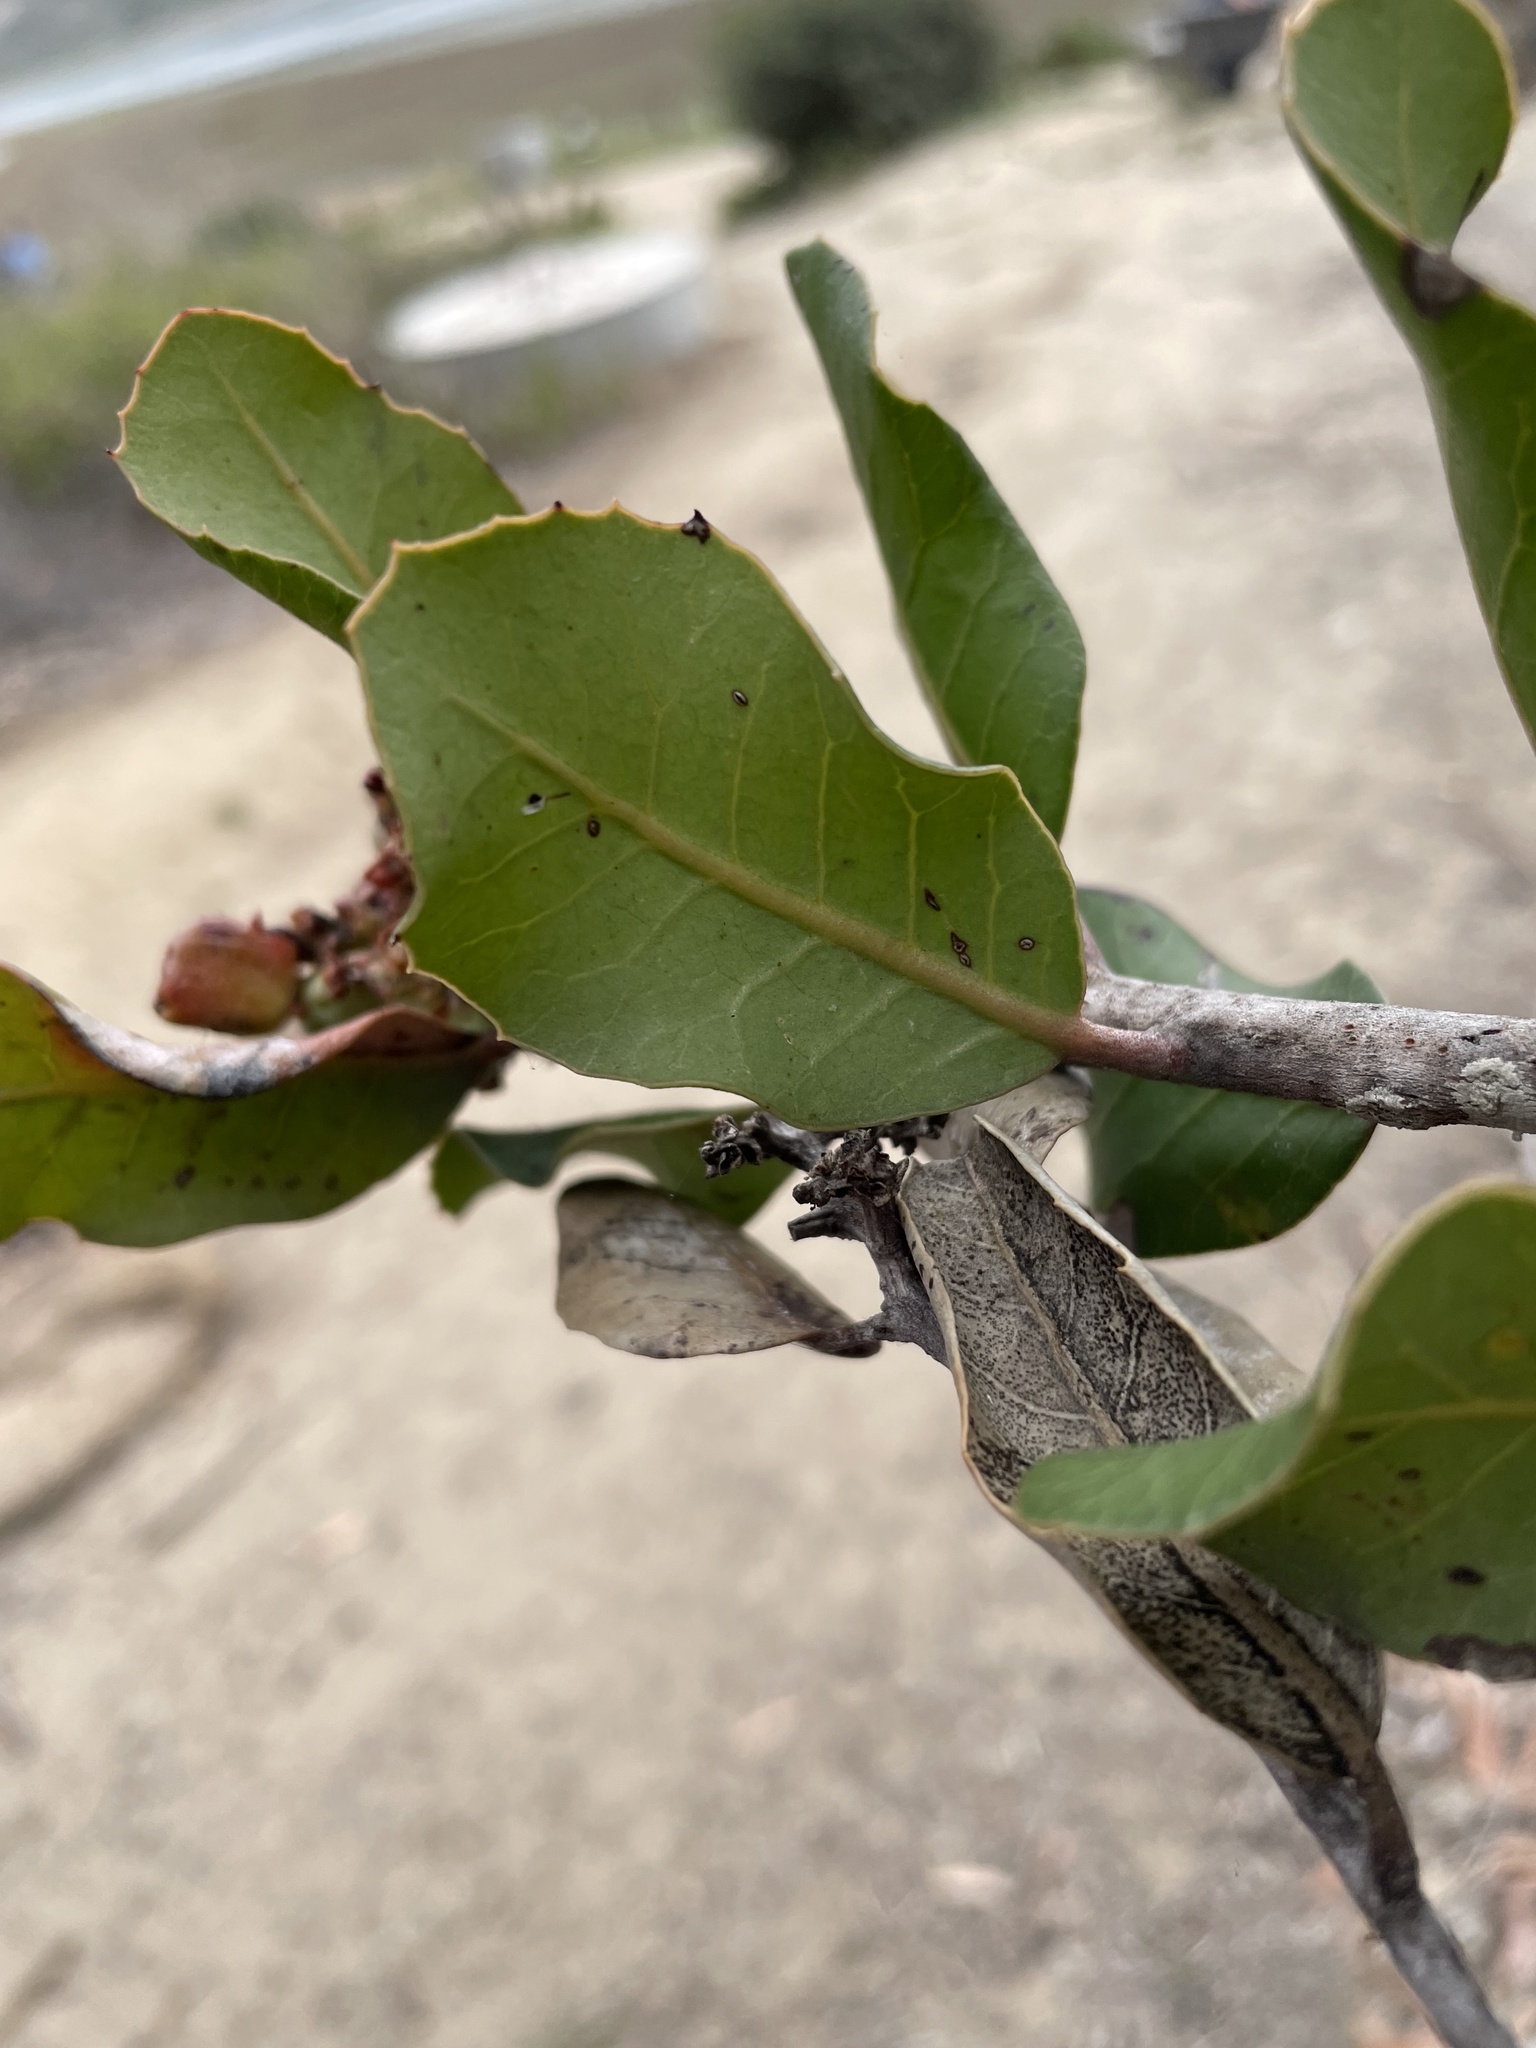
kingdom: Plantae
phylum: Tracheophyta
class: Magnoliopsida
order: Sapindales
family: Anacardiaceae
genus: Rhus
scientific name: Rhus integrifolia
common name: Lemonade sumac
